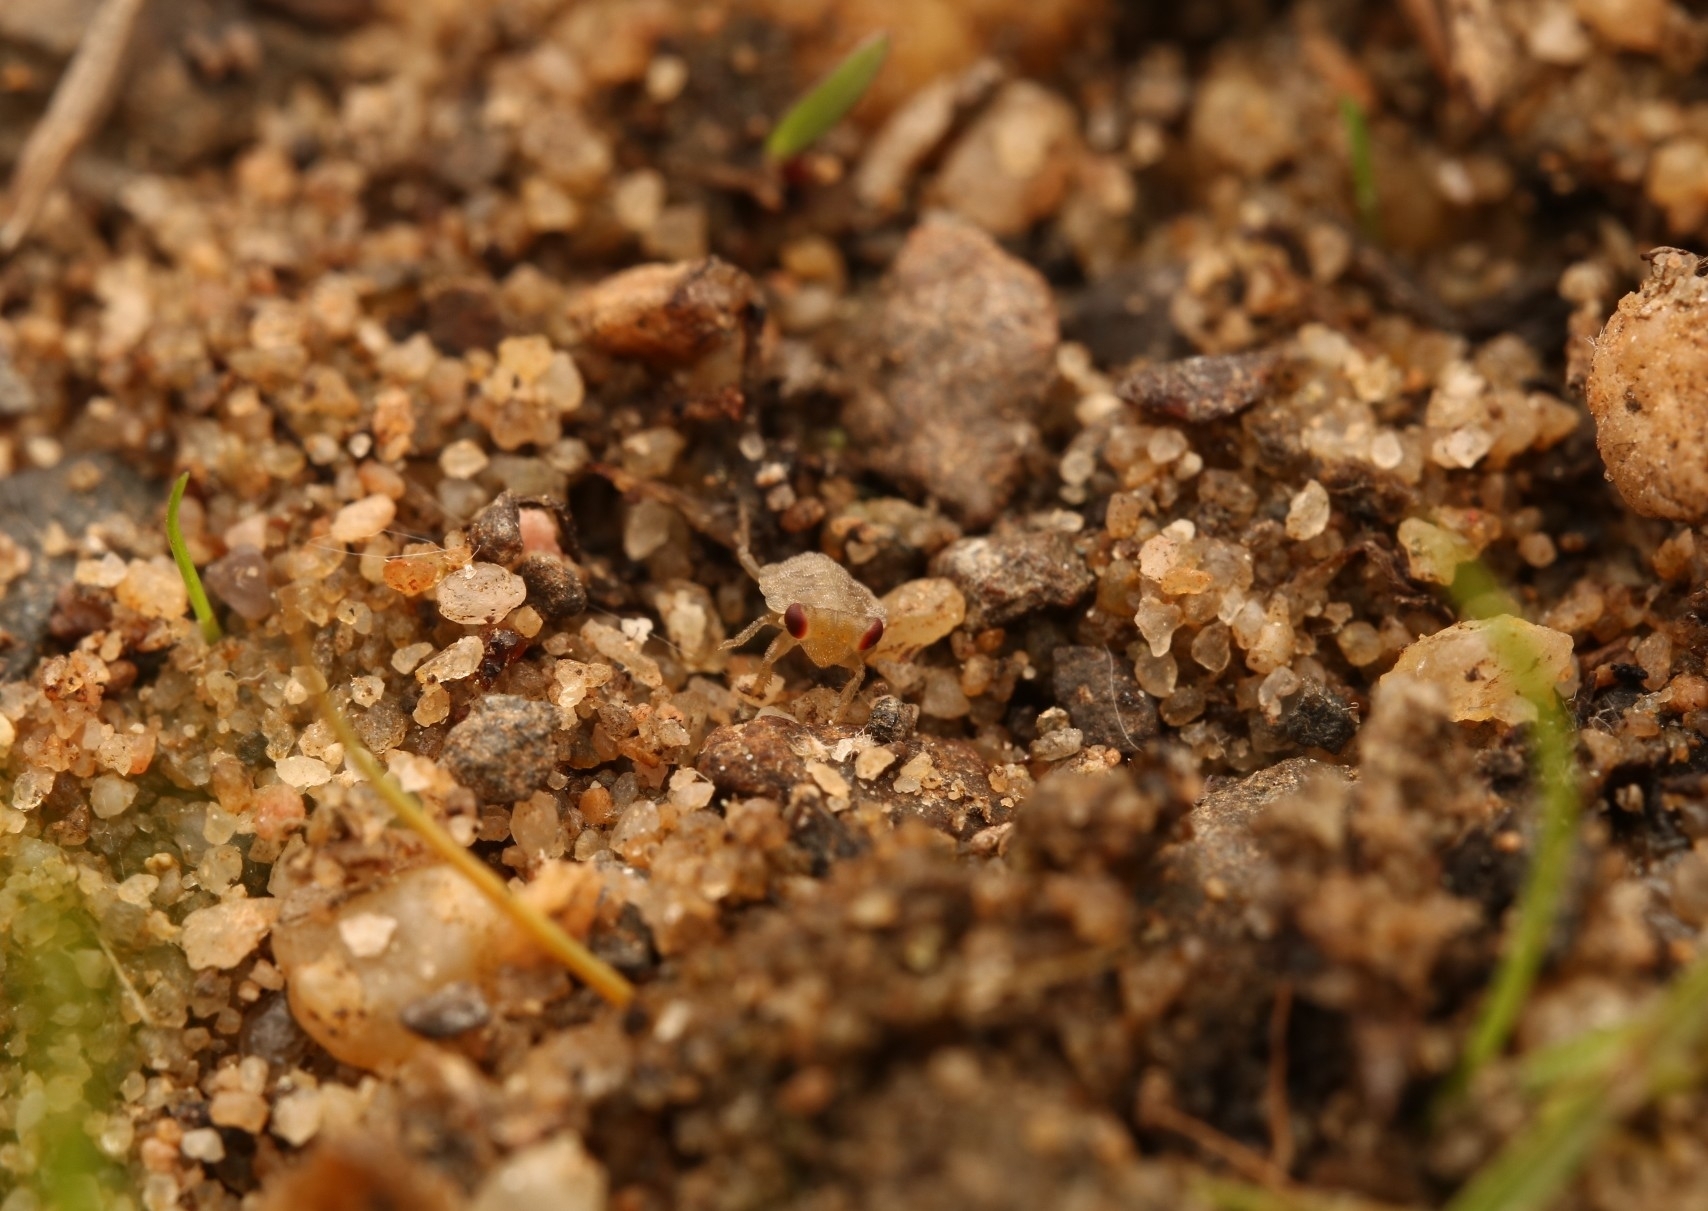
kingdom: Animalia
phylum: Arthropoda
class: Insecta
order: Hemiptera
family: Gelastocoridae
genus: Gelastocoris
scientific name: Gelastocoris oculatus
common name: Toad bug
